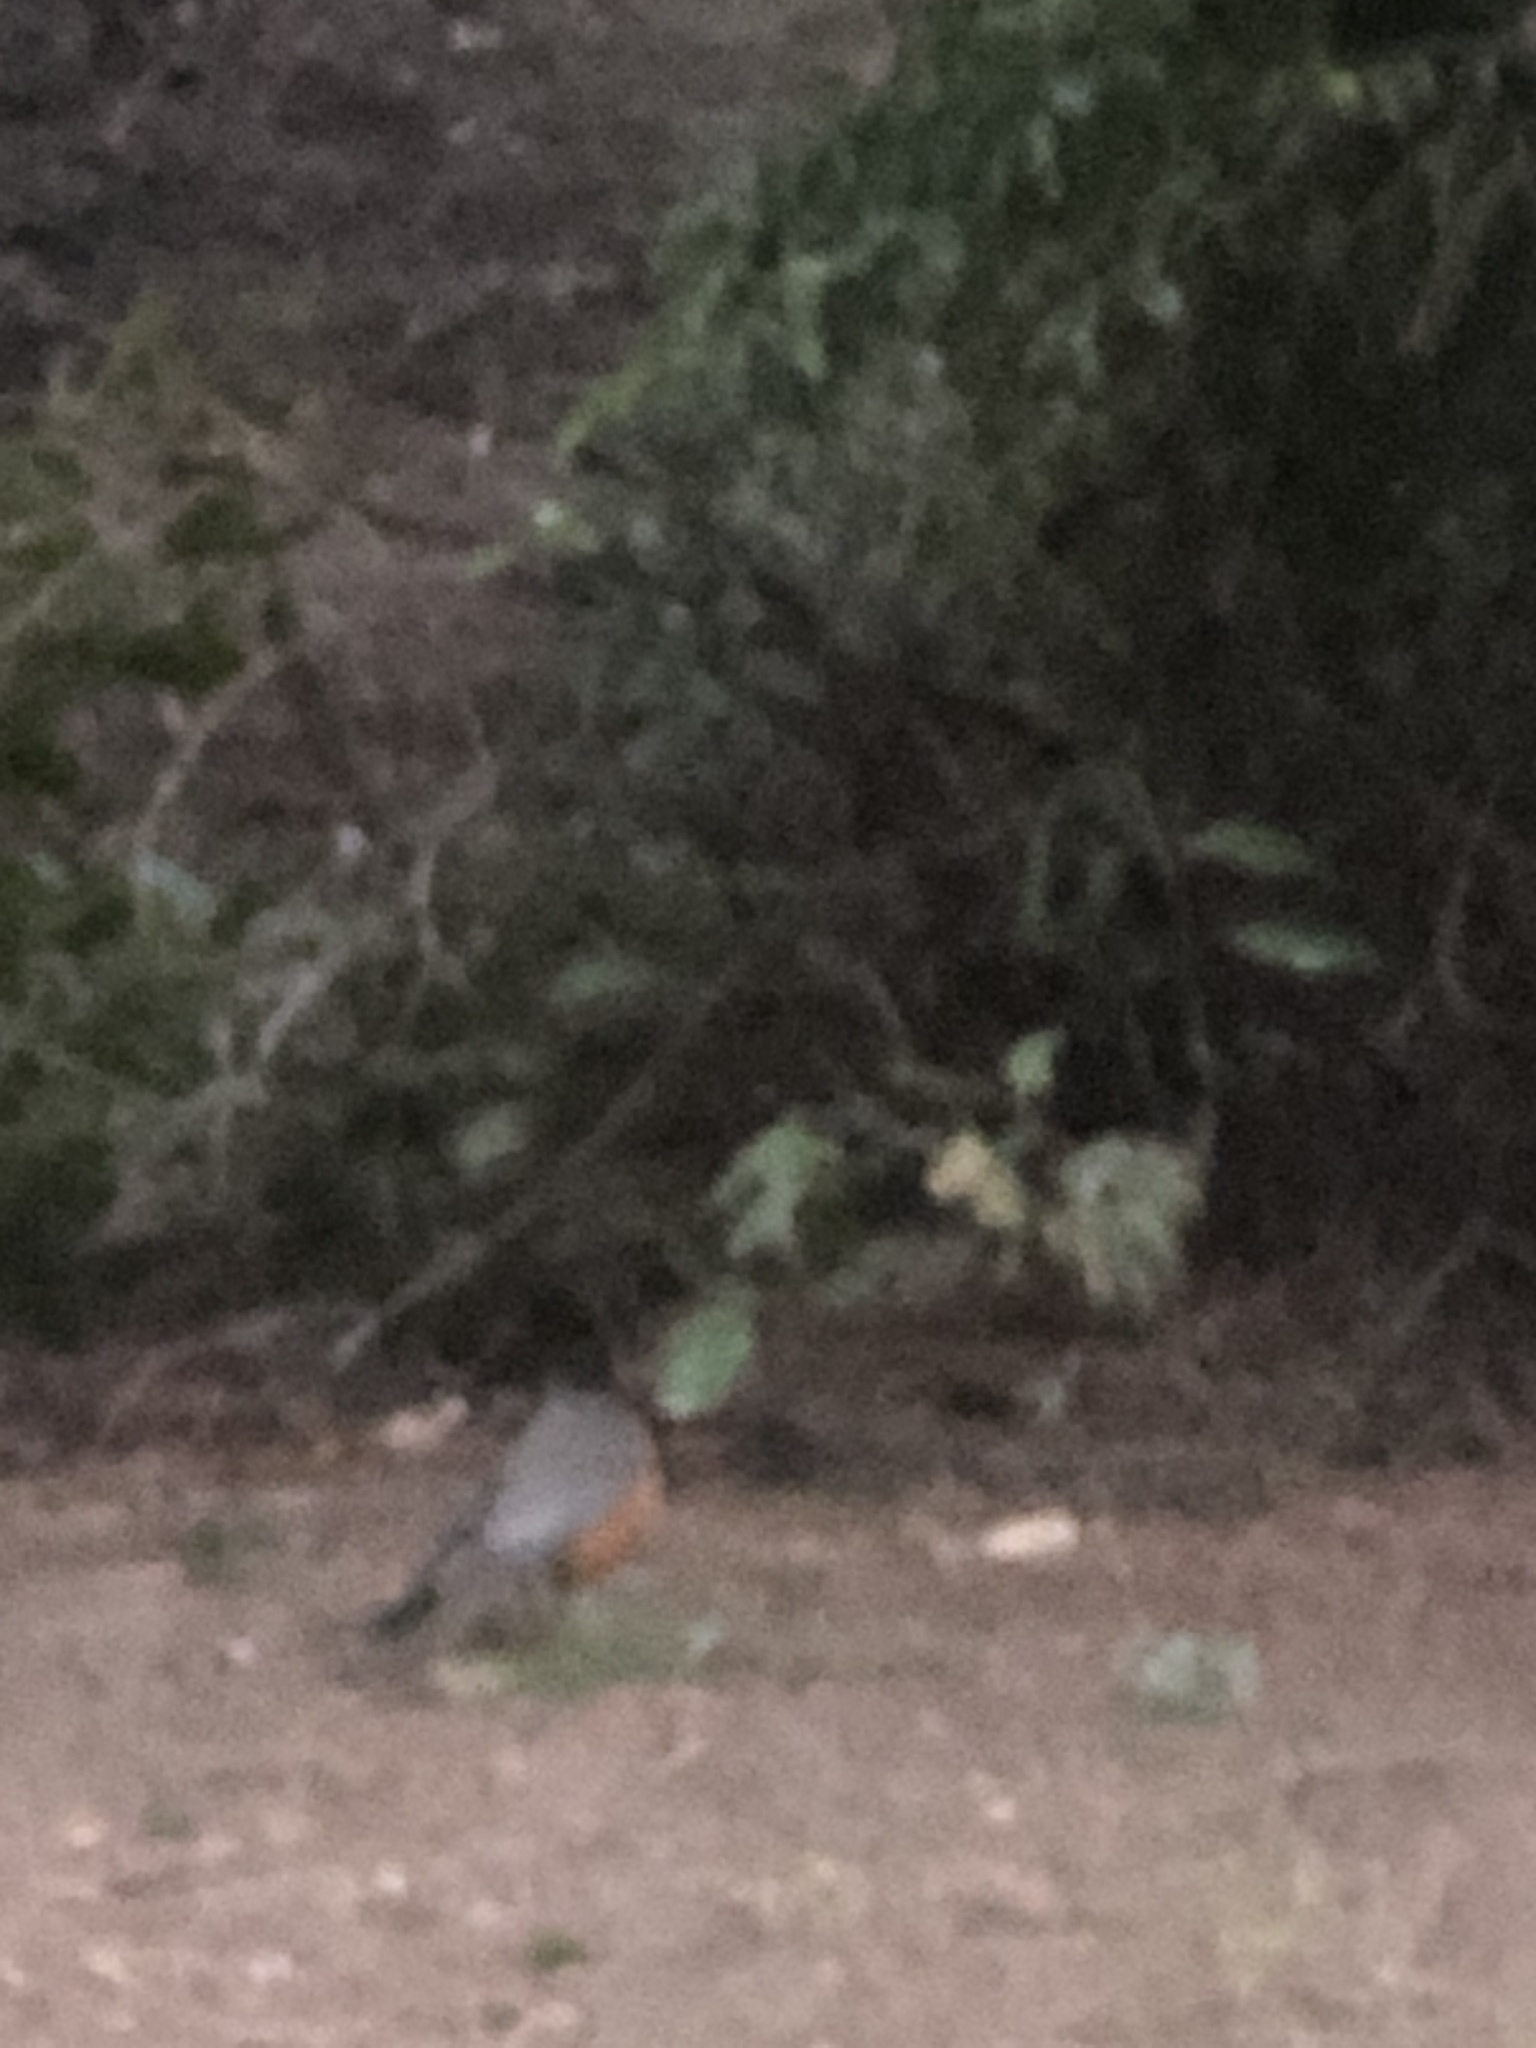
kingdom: Animalia
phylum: Chordata
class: Aves
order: Passeriformes
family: Turdidae
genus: Turdus
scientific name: Turdus migratorius
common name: American robin
